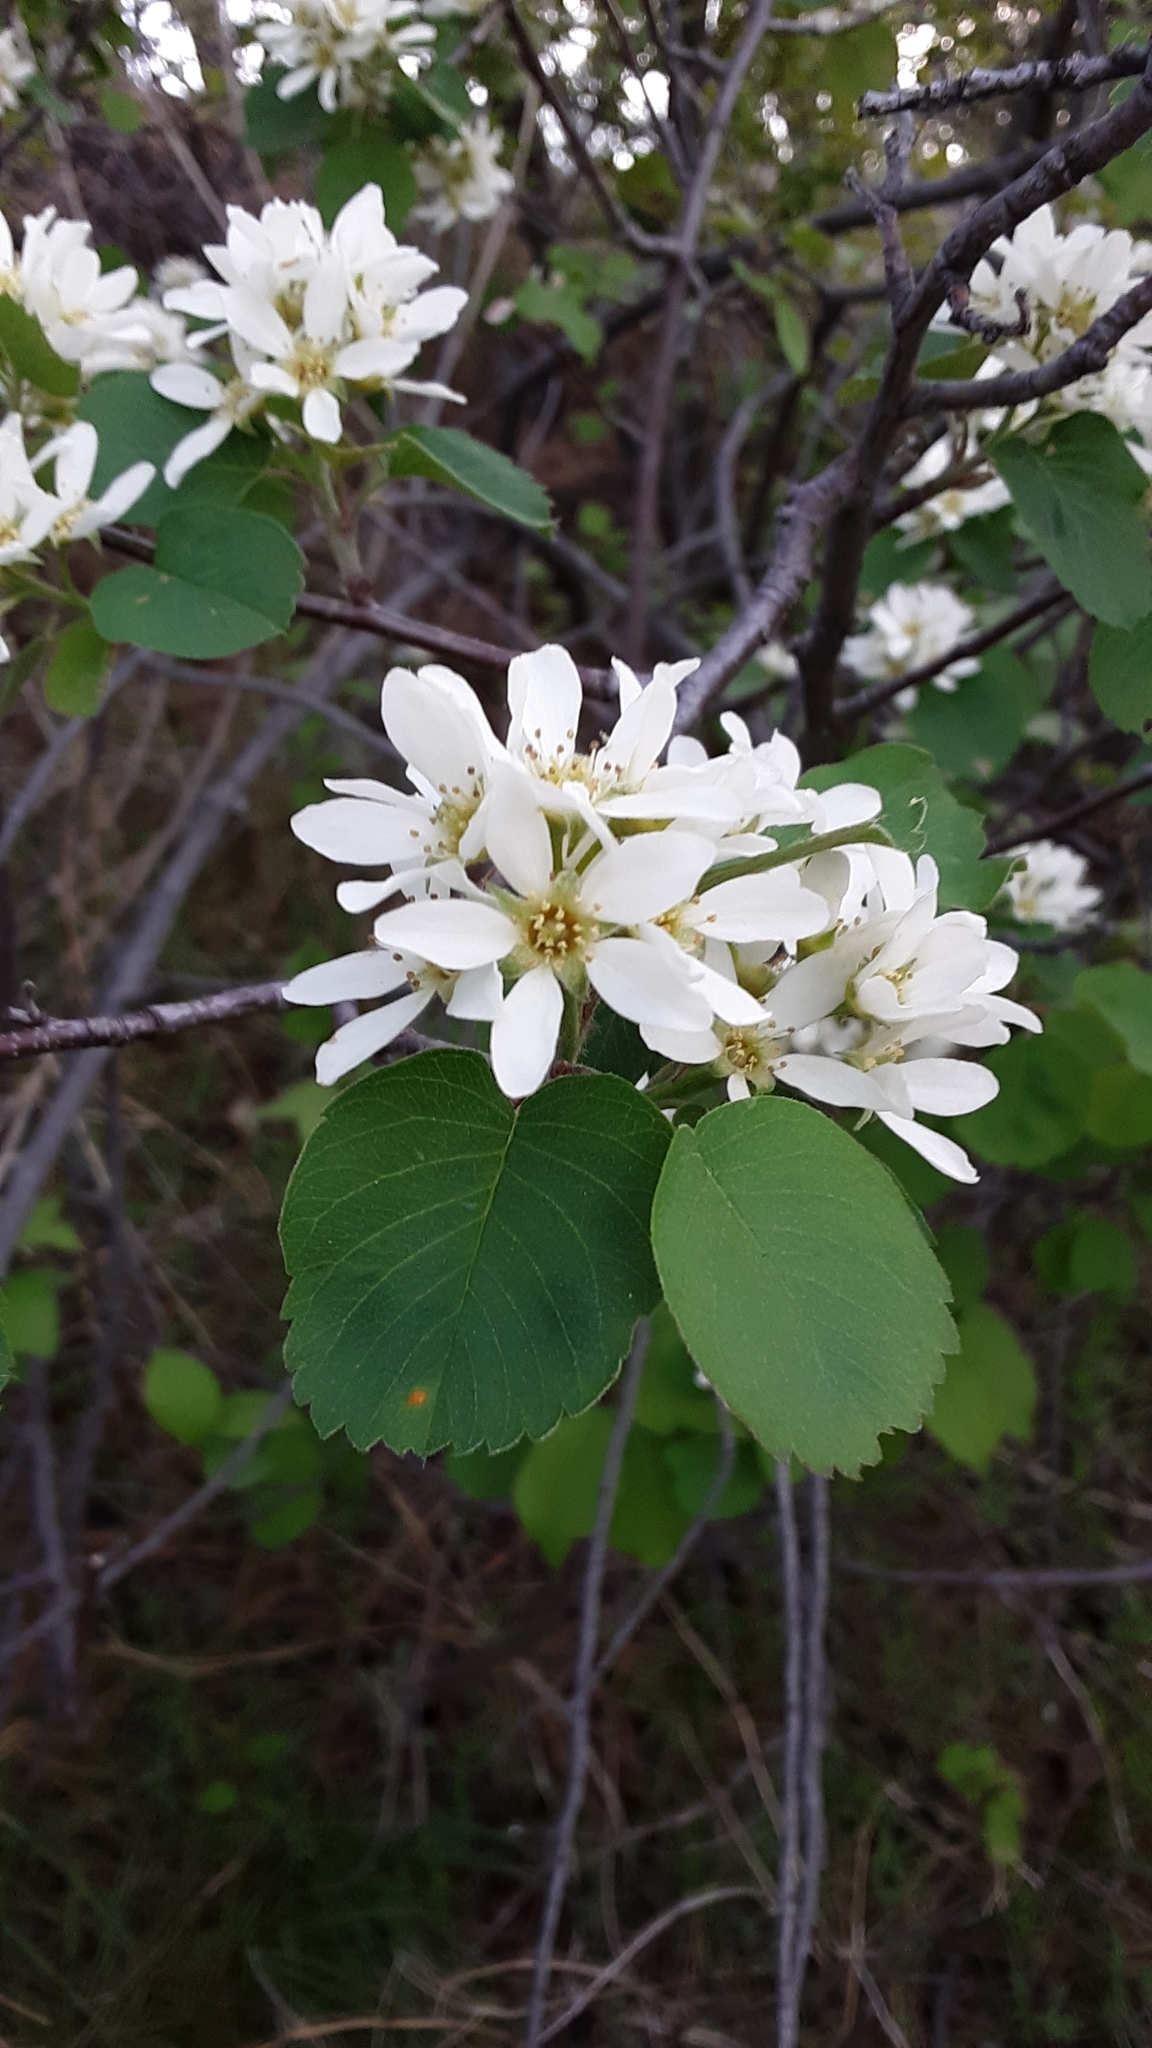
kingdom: Plantae
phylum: Tracheophyta
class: Magnoliopsida
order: Rosales
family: Rosaceae
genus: Amelanchier
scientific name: Amelanchier alnifolia
